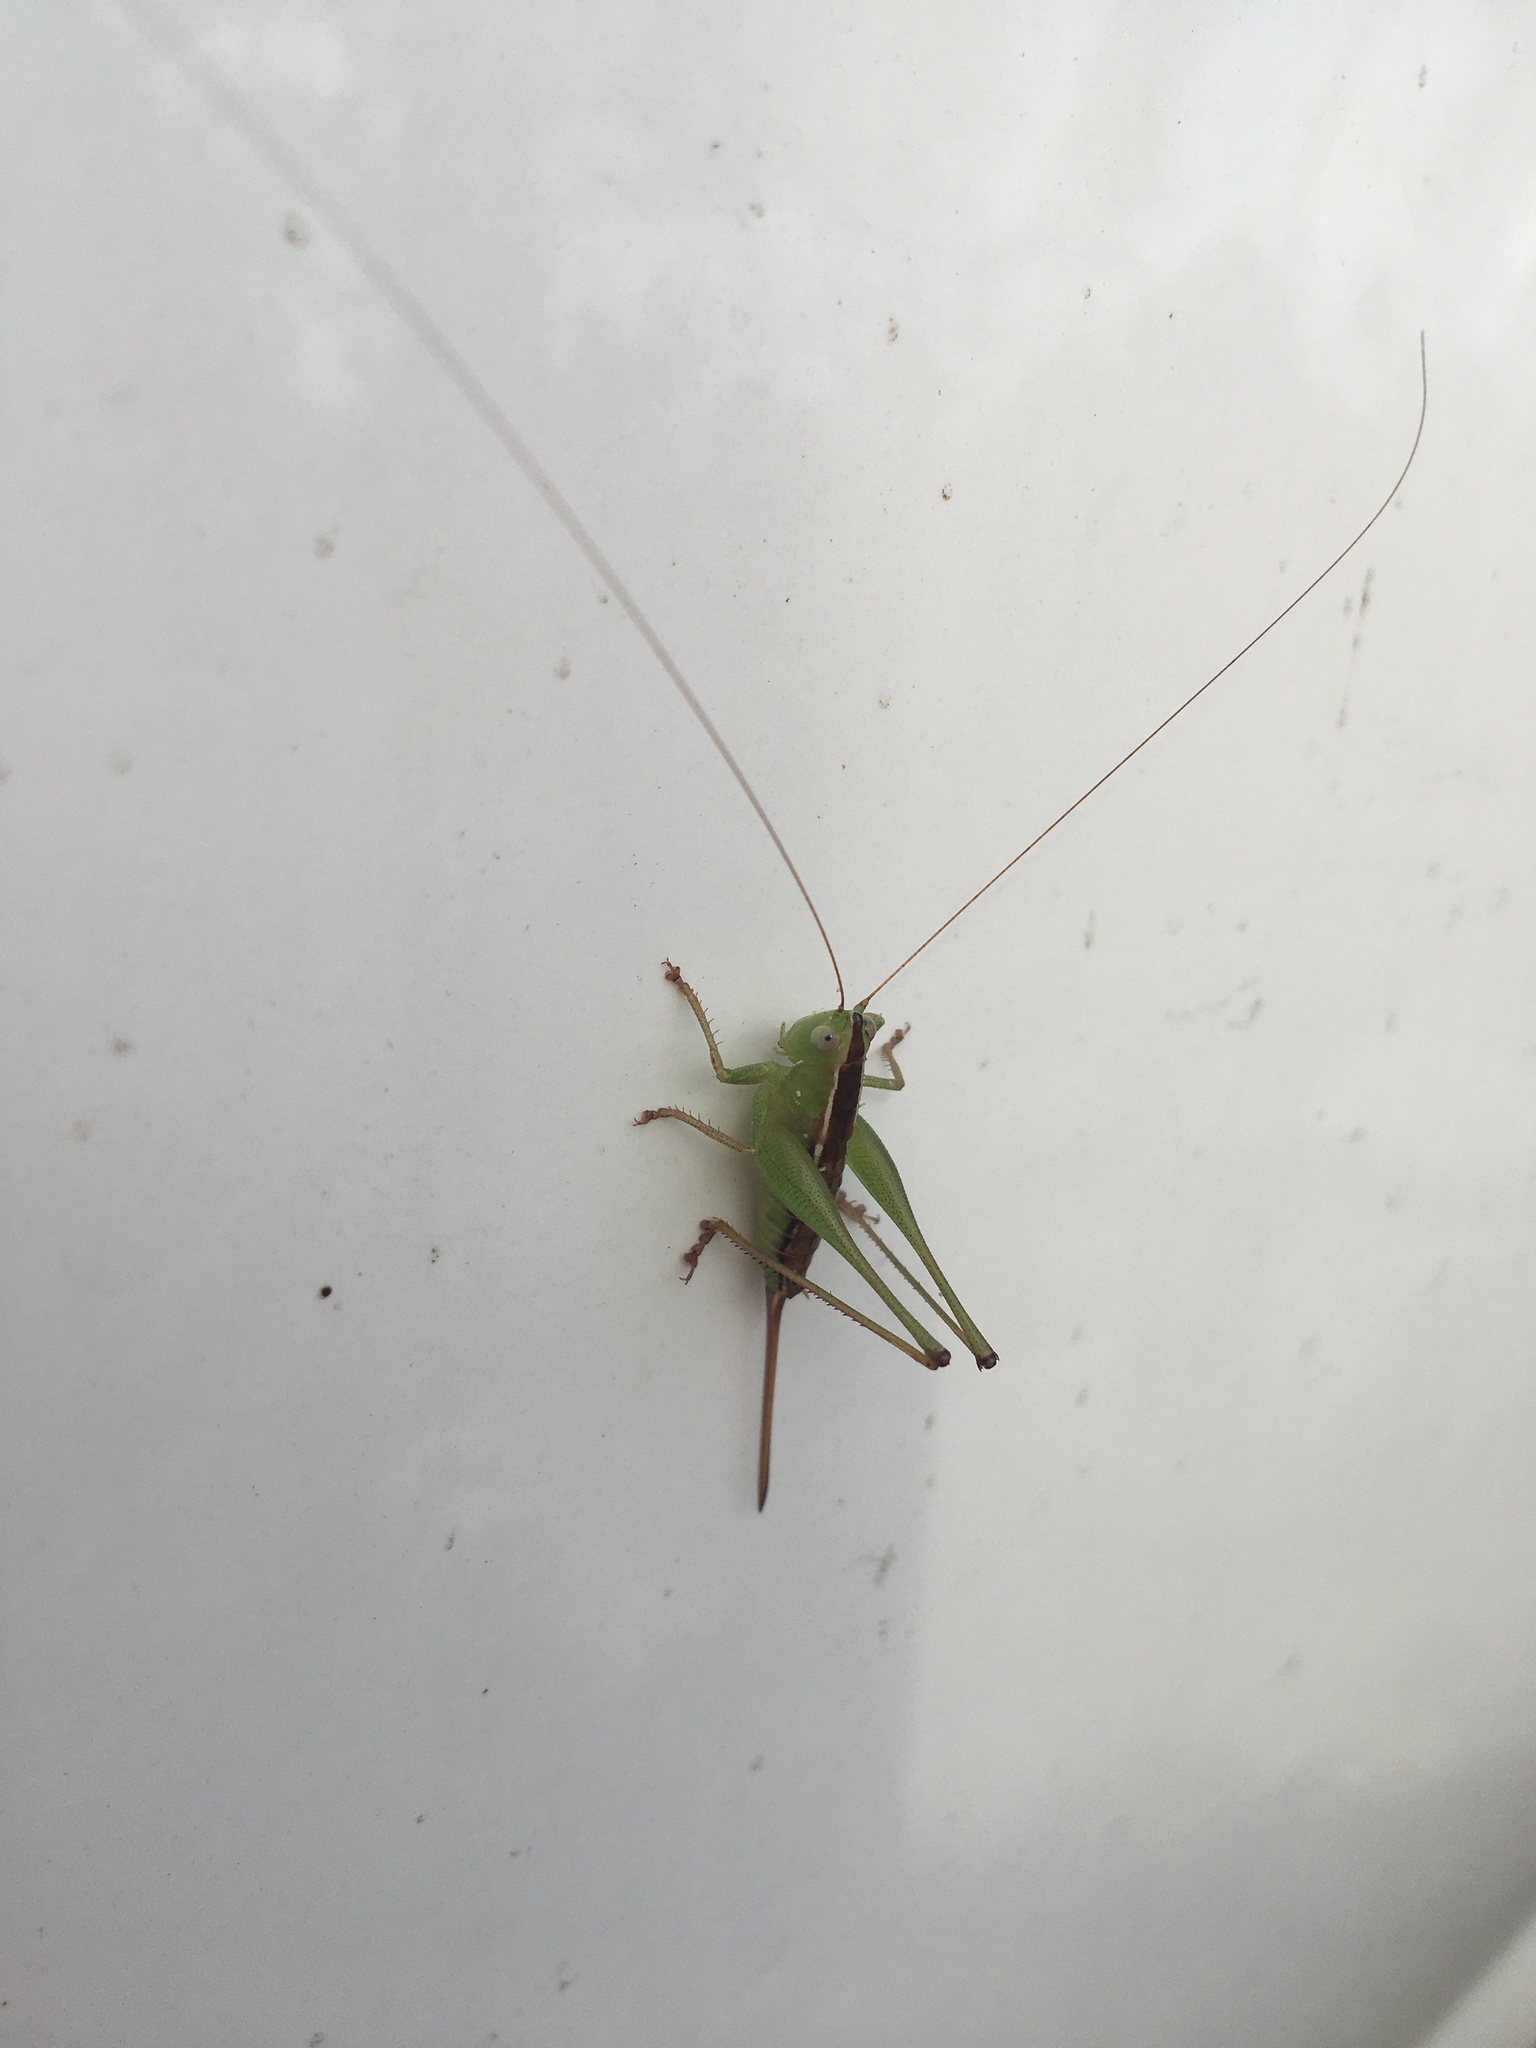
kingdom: Animalia
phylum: Arthropoda
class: Insecta
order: Orthoptera
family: Tettigoniidae
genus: Odontoxiphidium
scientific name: Odontoxiphidium apterum
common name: Wingless meadow katydid
